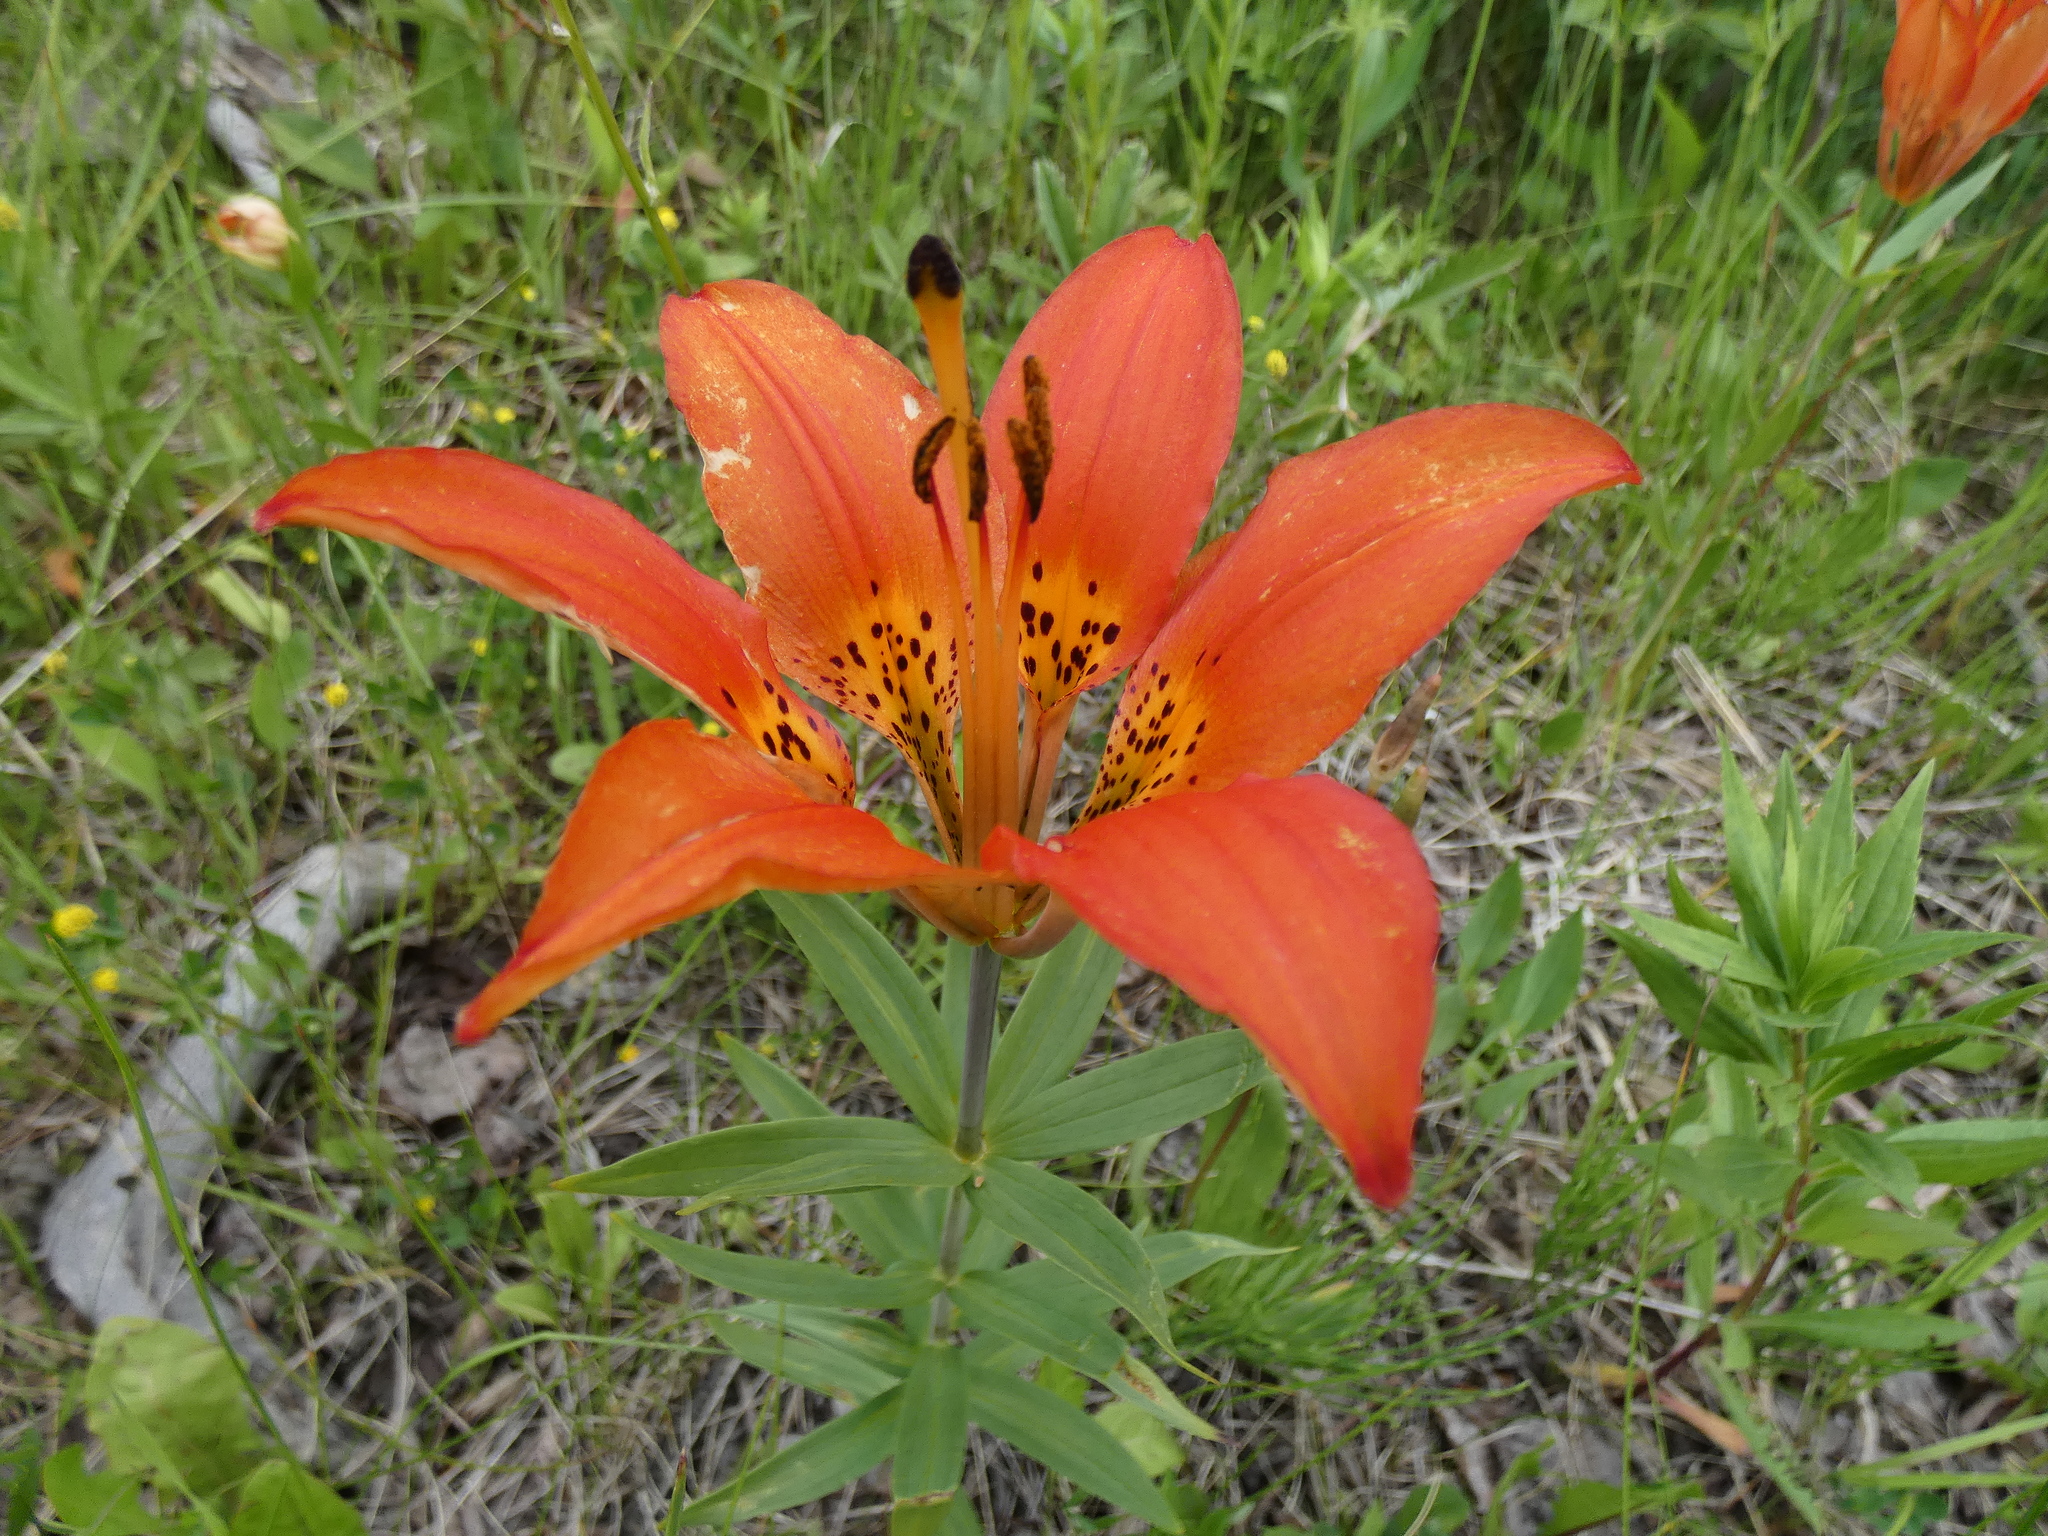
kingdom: Plantae
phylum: Tracheophyta
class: Liliopsida
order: Liliales
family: Liliaceae
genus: Lilium
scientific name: Lilium philadelphicum
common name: Red lily
